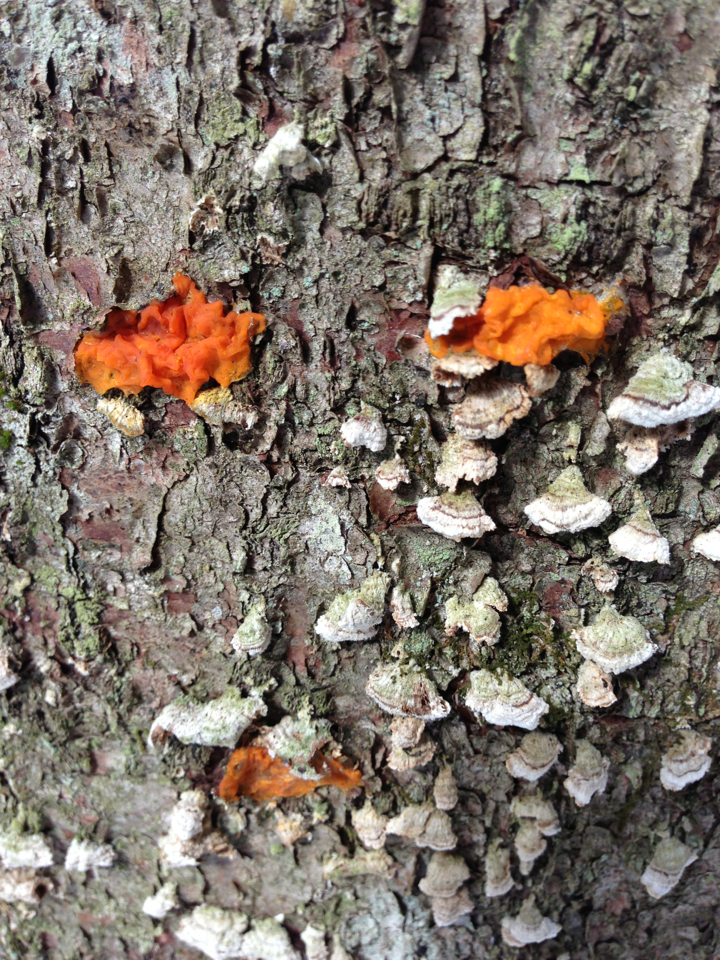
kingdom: Fungi
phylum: Basidiomycota
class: Dacrymycetes
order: Dacrymycetales
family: Dacrymycetaceae
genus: Dacrymyces
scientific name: Dacrymyces chrysospermus
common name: Orange jelly spot
